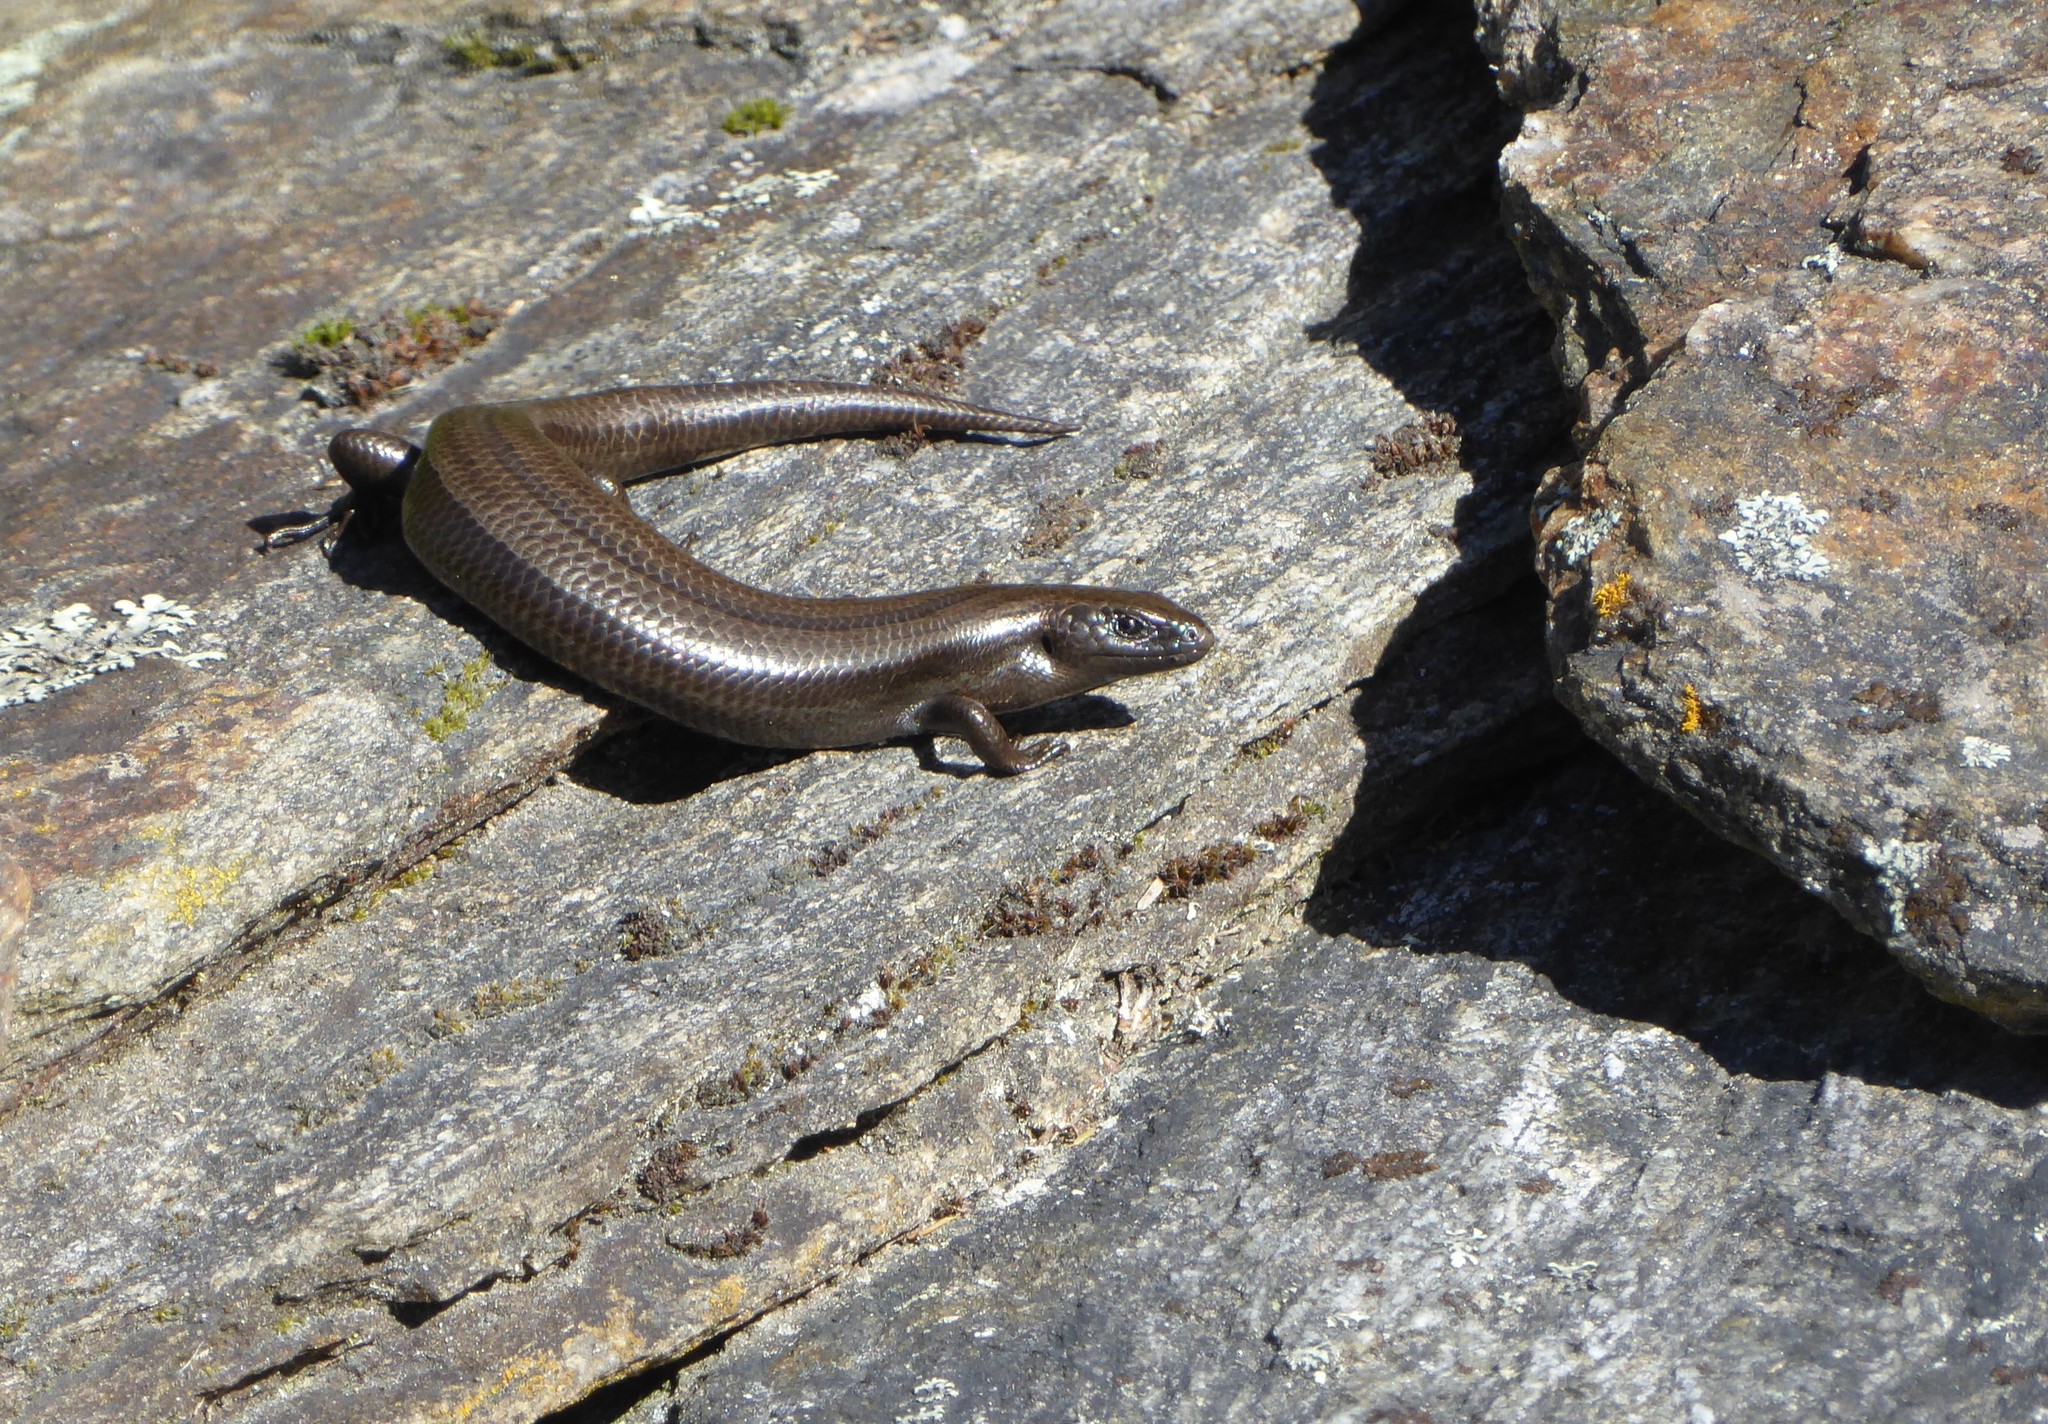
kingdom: Animalia
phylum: Chordata
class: Squamata
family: Scincidae
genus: Oligosoma
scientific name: Oligosoma polychroma
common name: Common new zealand skink
